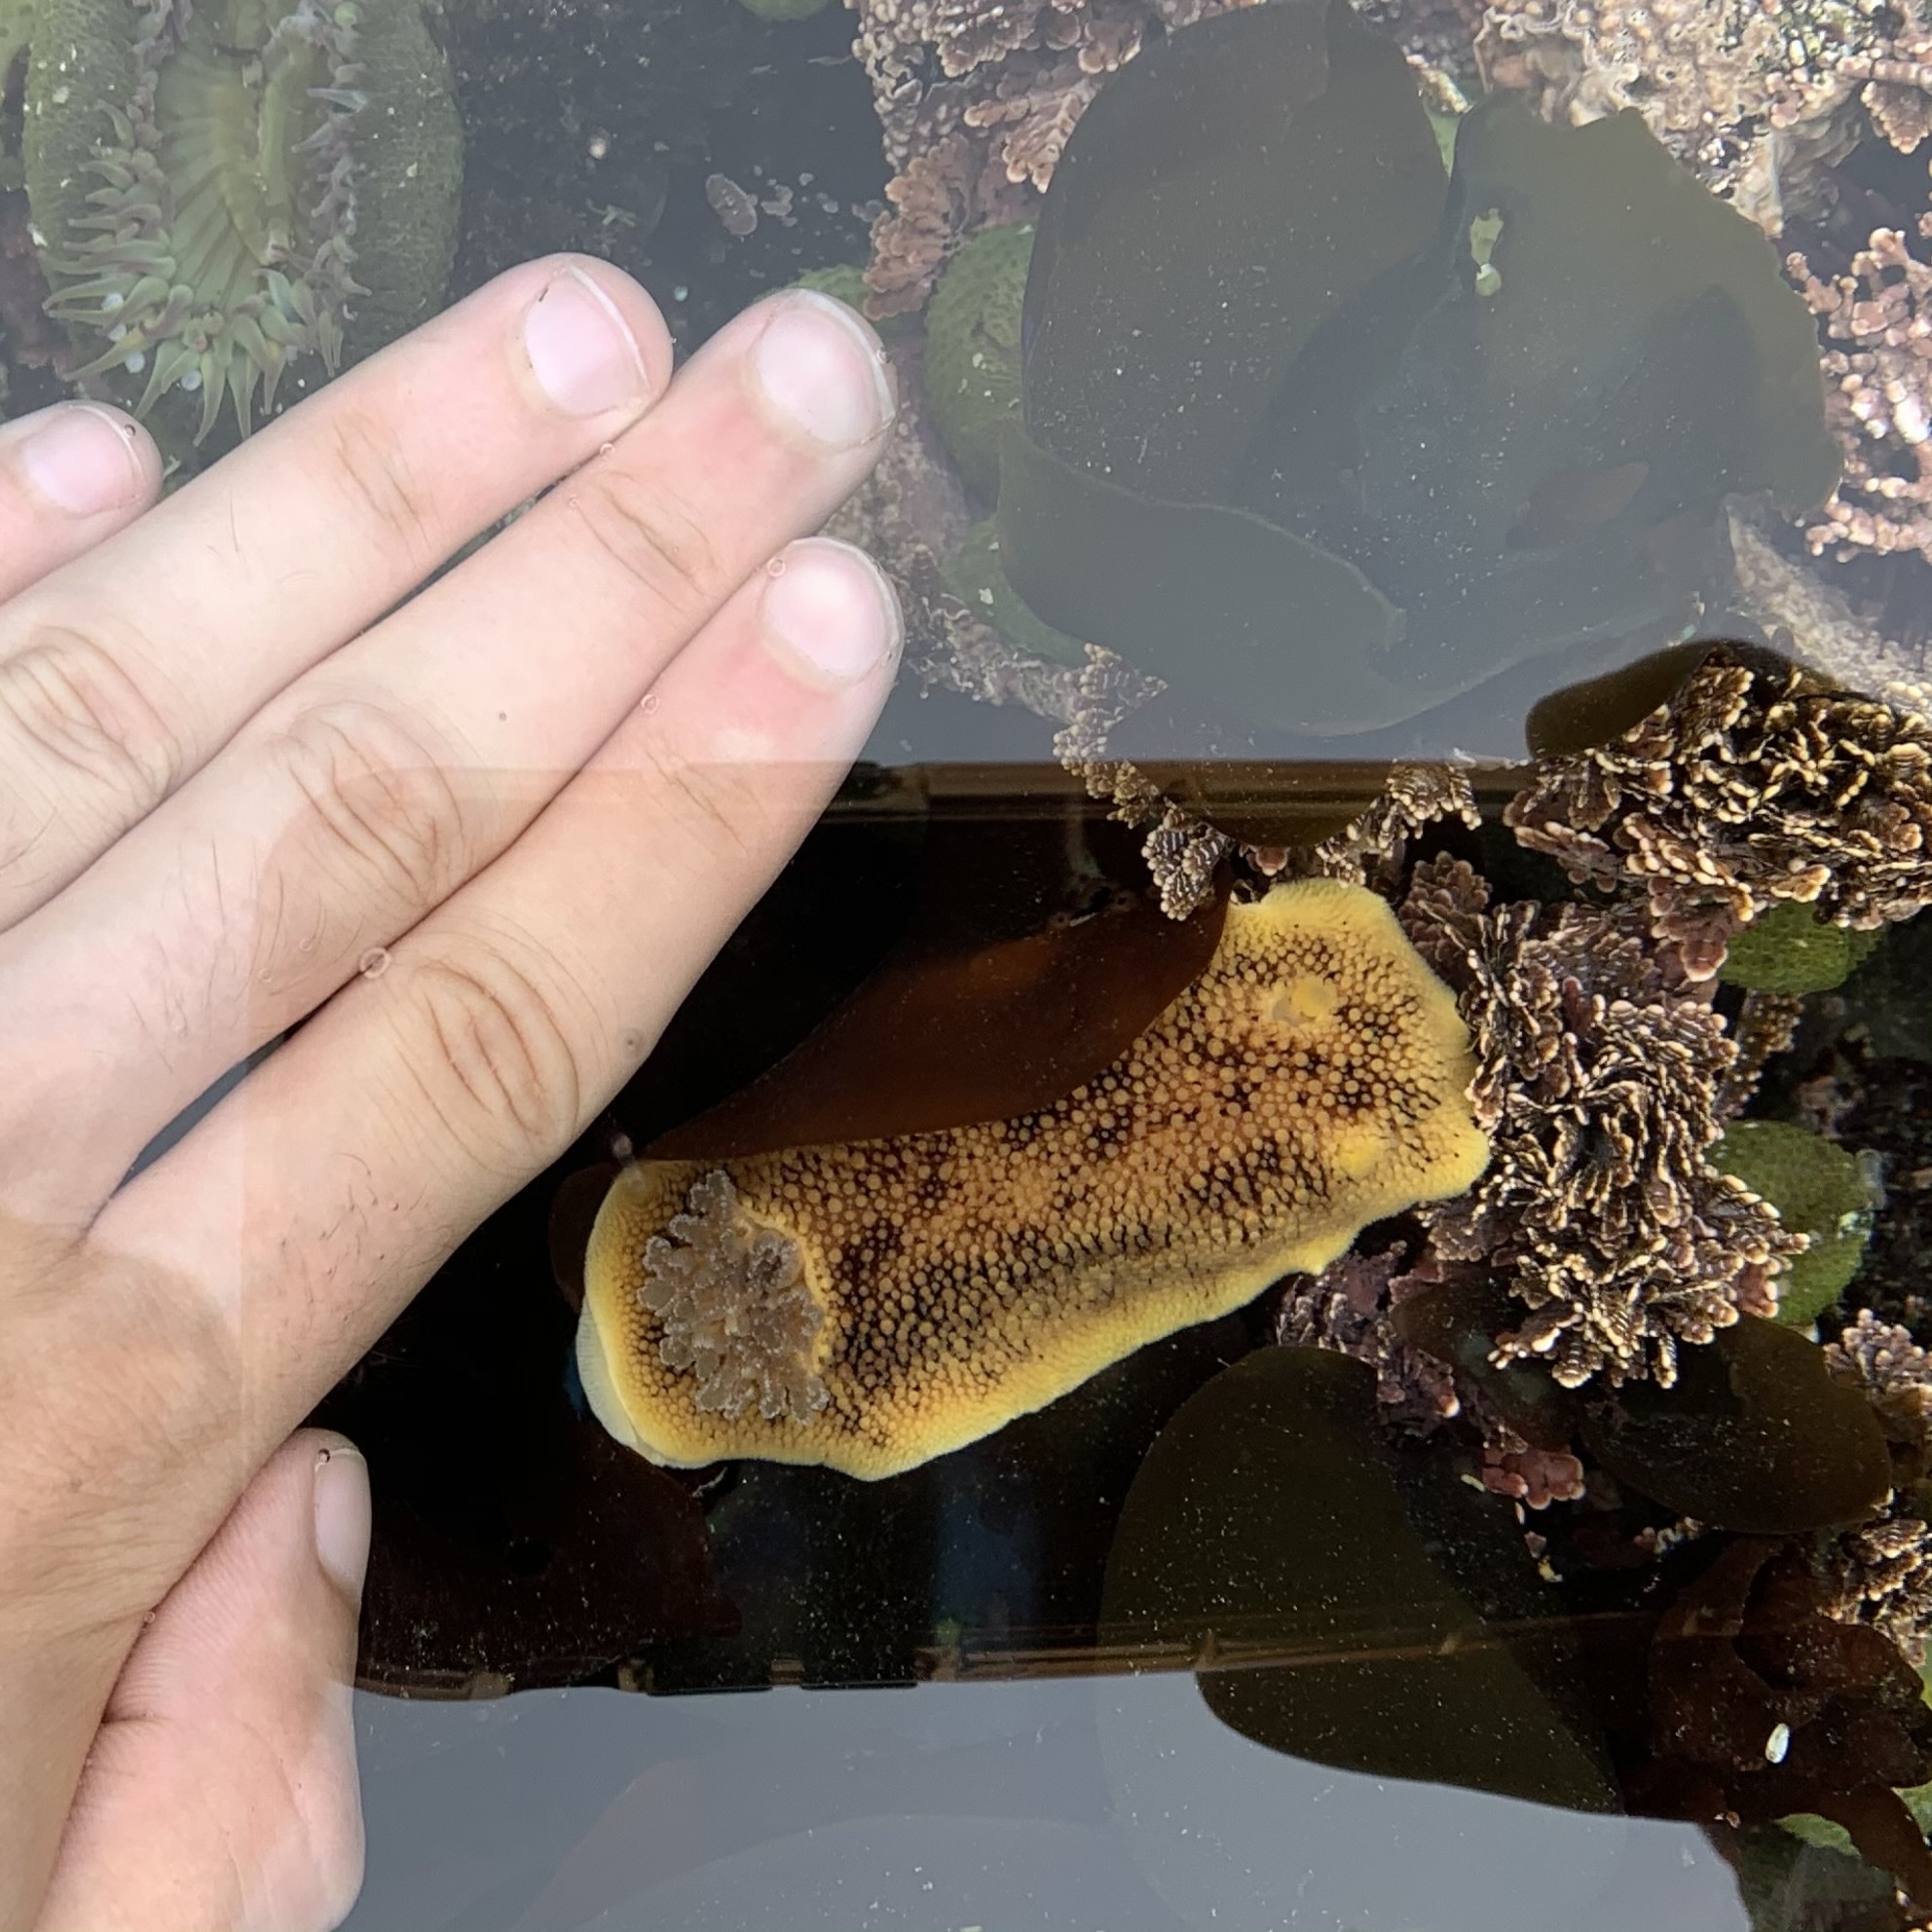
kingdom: Animalia
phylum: Mollusca
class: Gastropoda
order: Nudibranchia
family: Discodorididae
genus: Peltodoris
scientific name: Peltodoris nobilis
